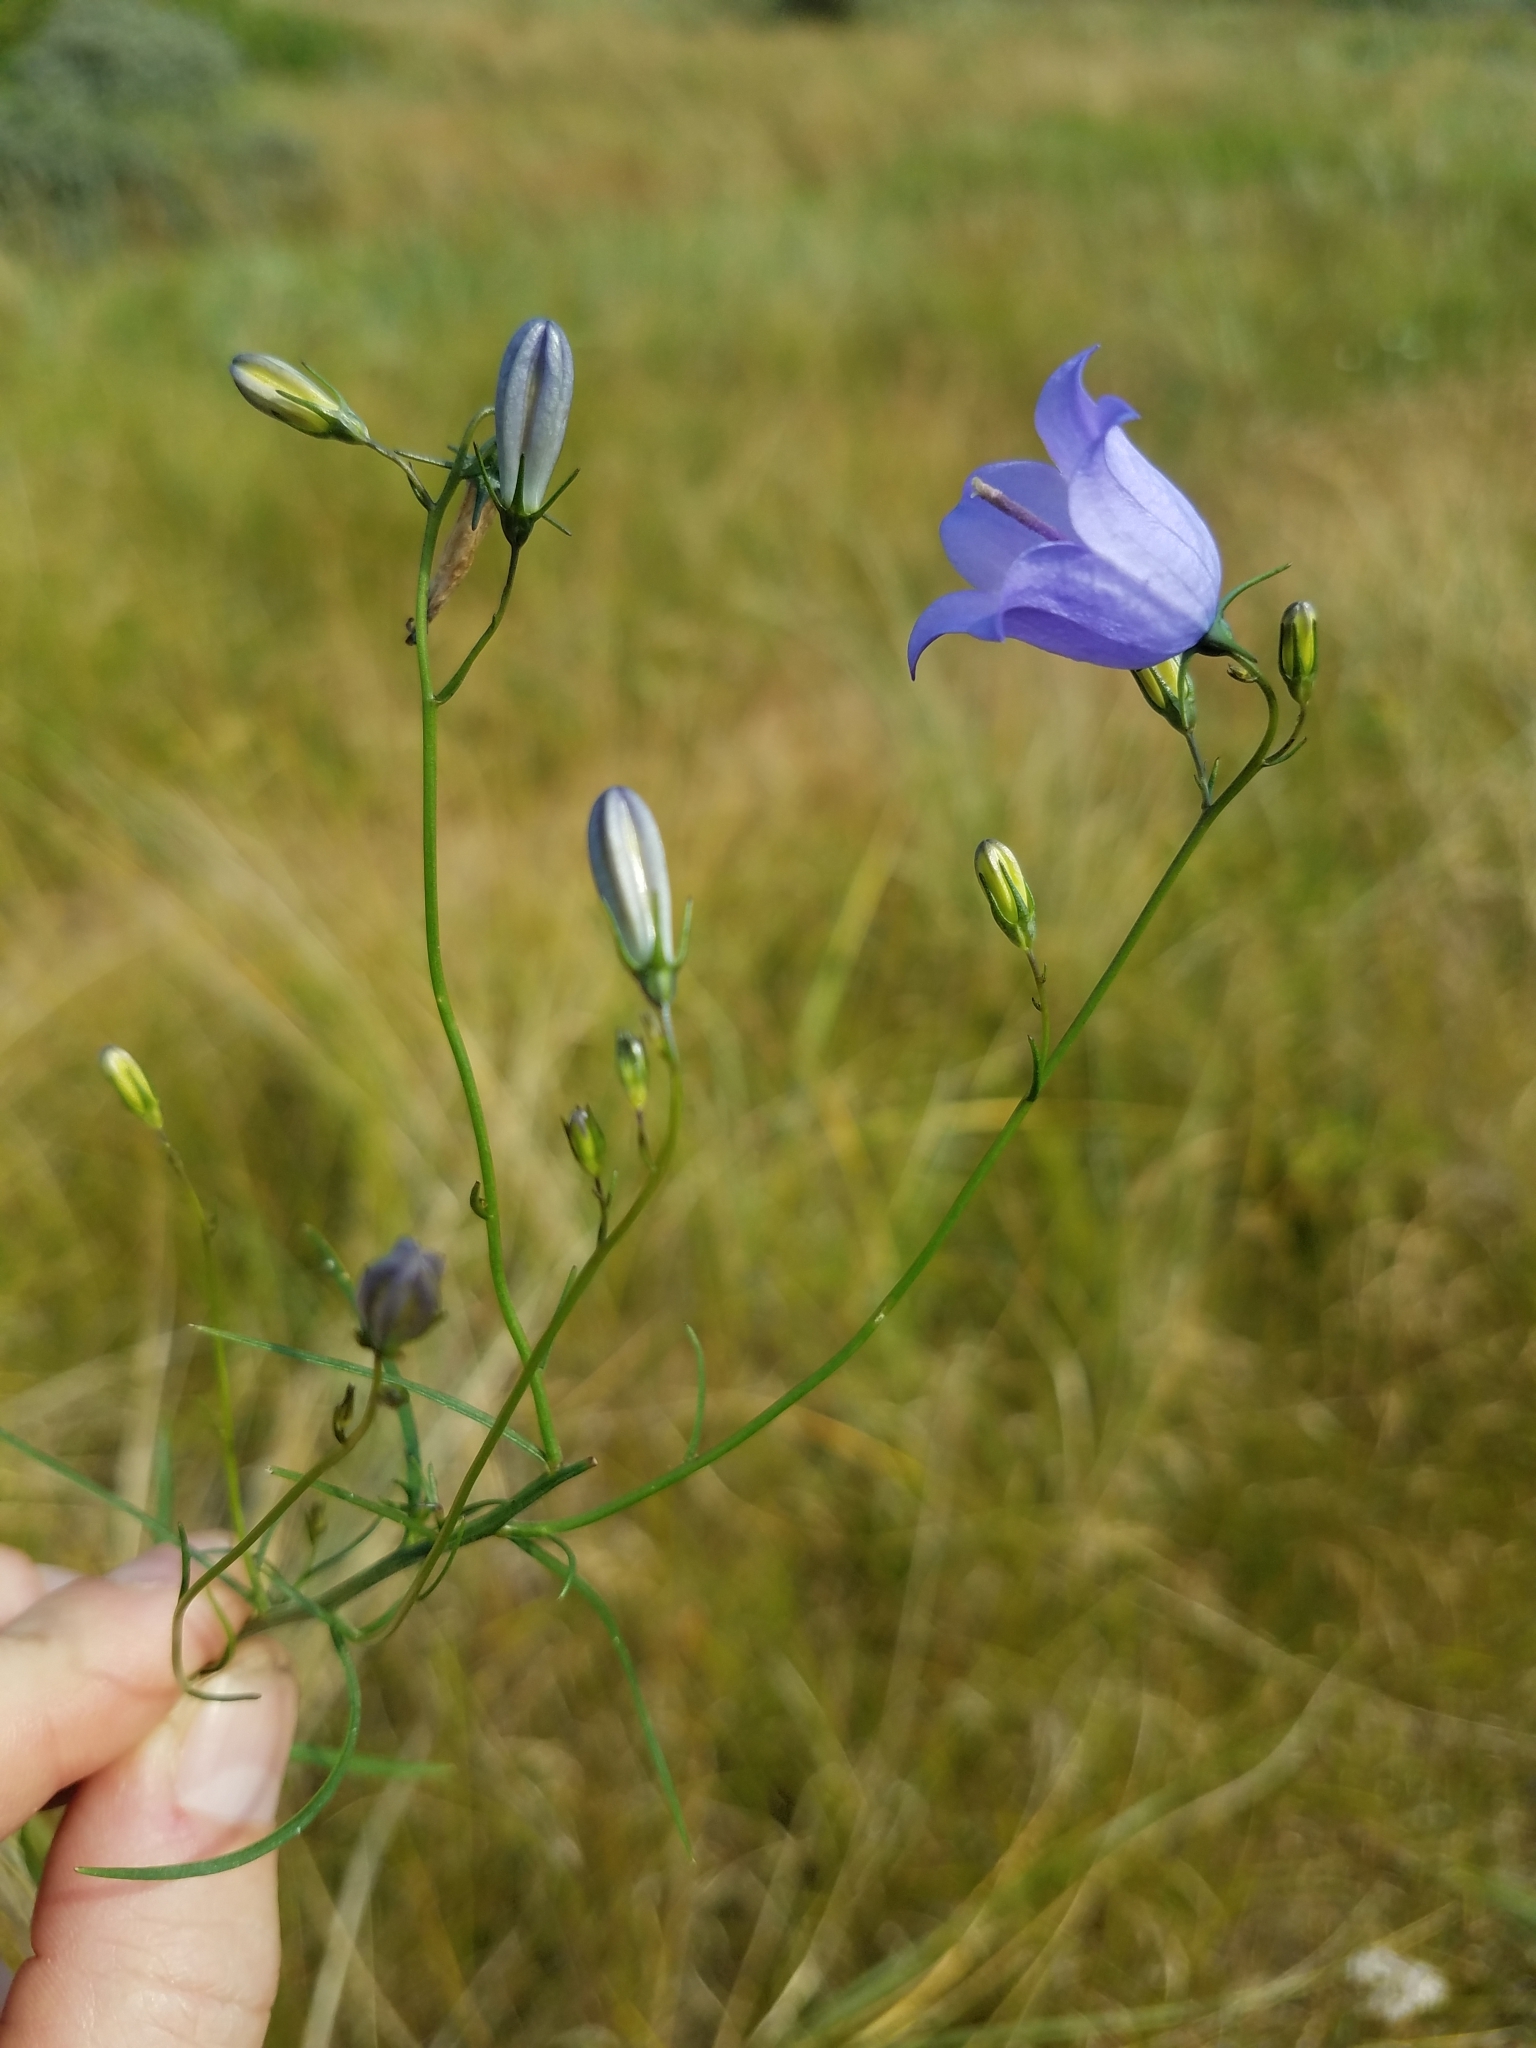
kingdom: Plantae
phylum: Tracheophyta
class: Magnoliopsida
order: Asterales
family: Campanulaceae
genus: Campanula
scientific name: Campanula rotundifolia
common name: Harebell
